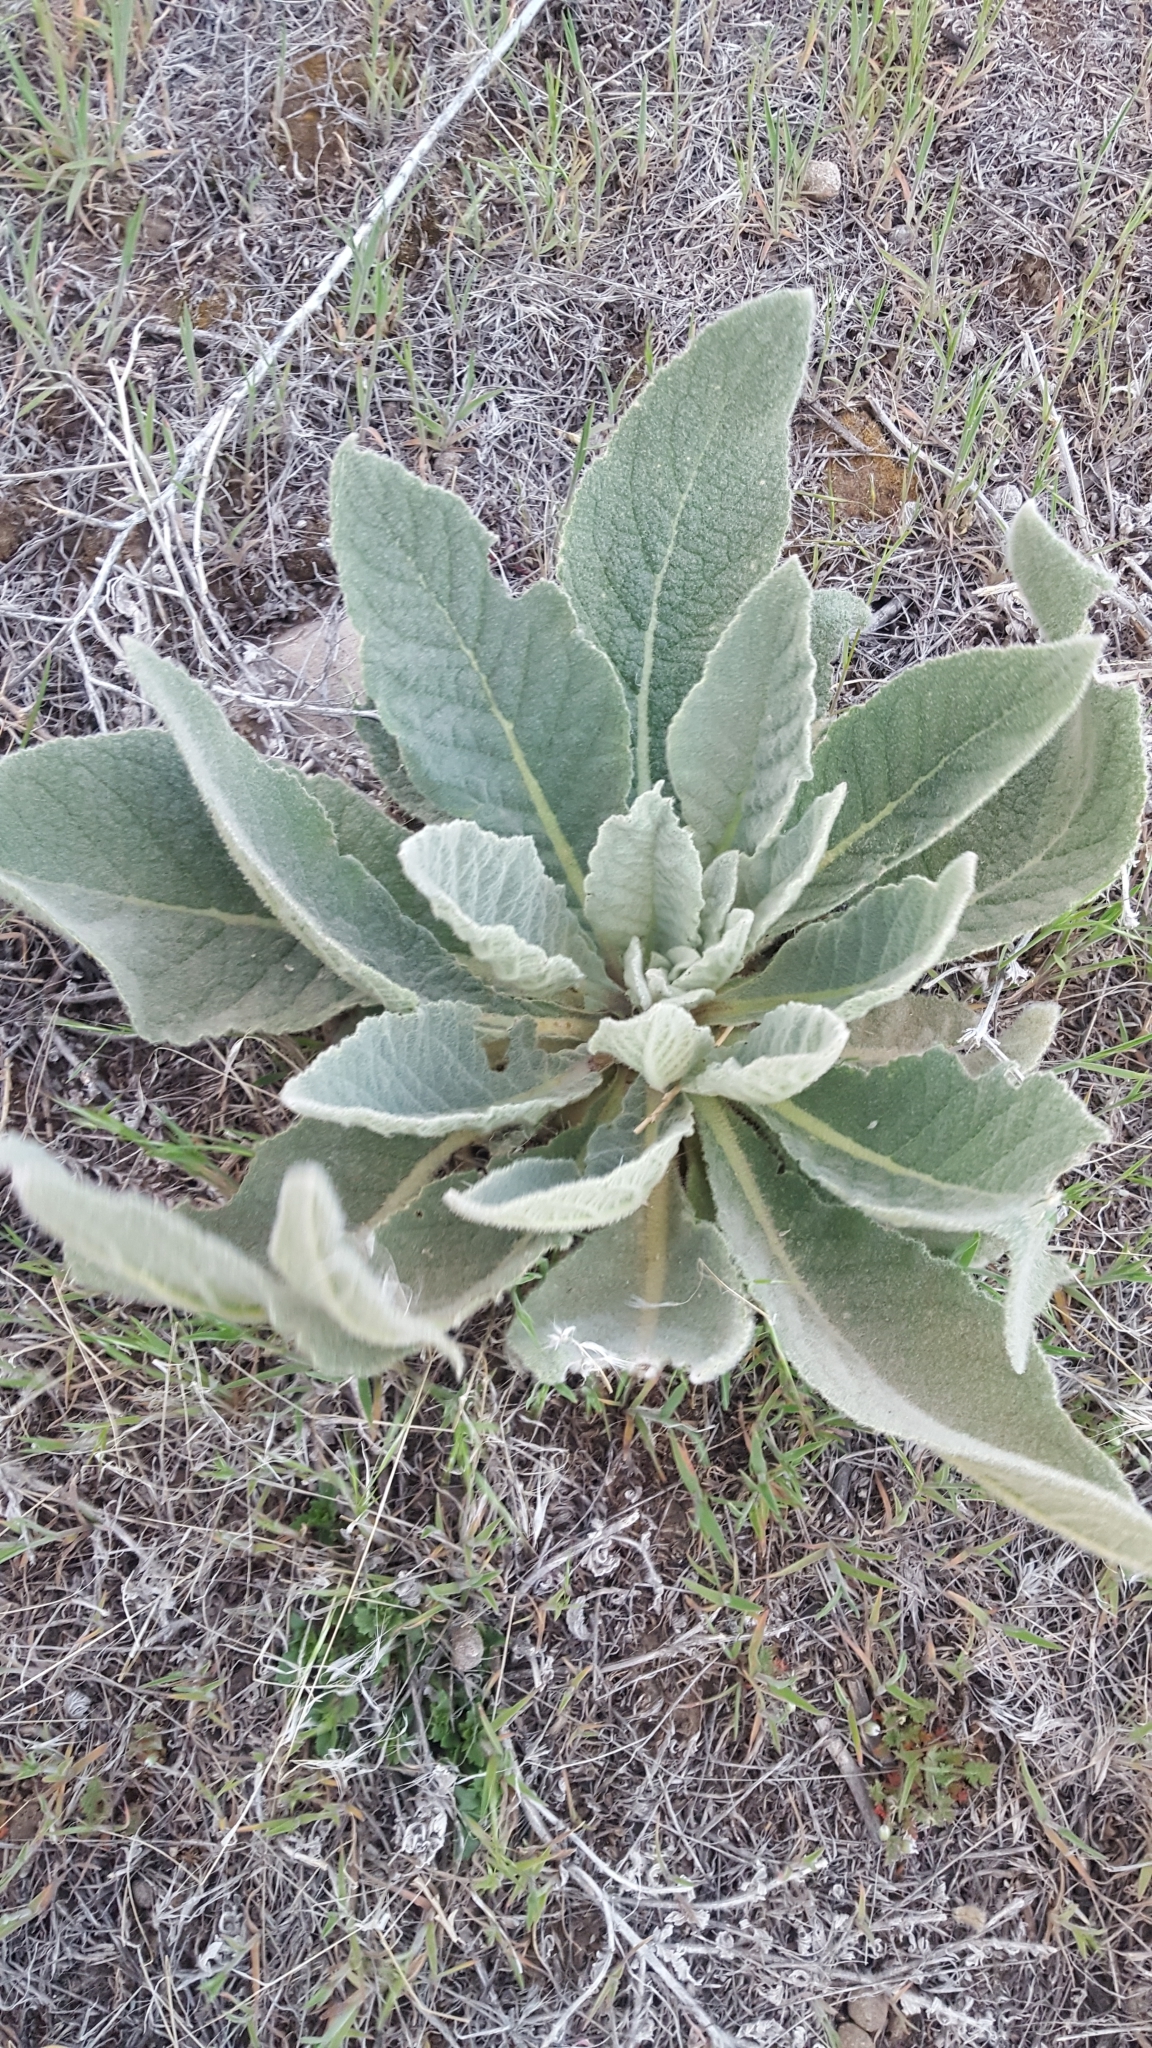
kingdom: Plantae
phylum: Tracheophyta
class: Magnoliopsida
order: Lamiales
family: Scrophulariaceae
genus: Verbascum
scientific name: Verbascum thapsus
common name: Common mullein
